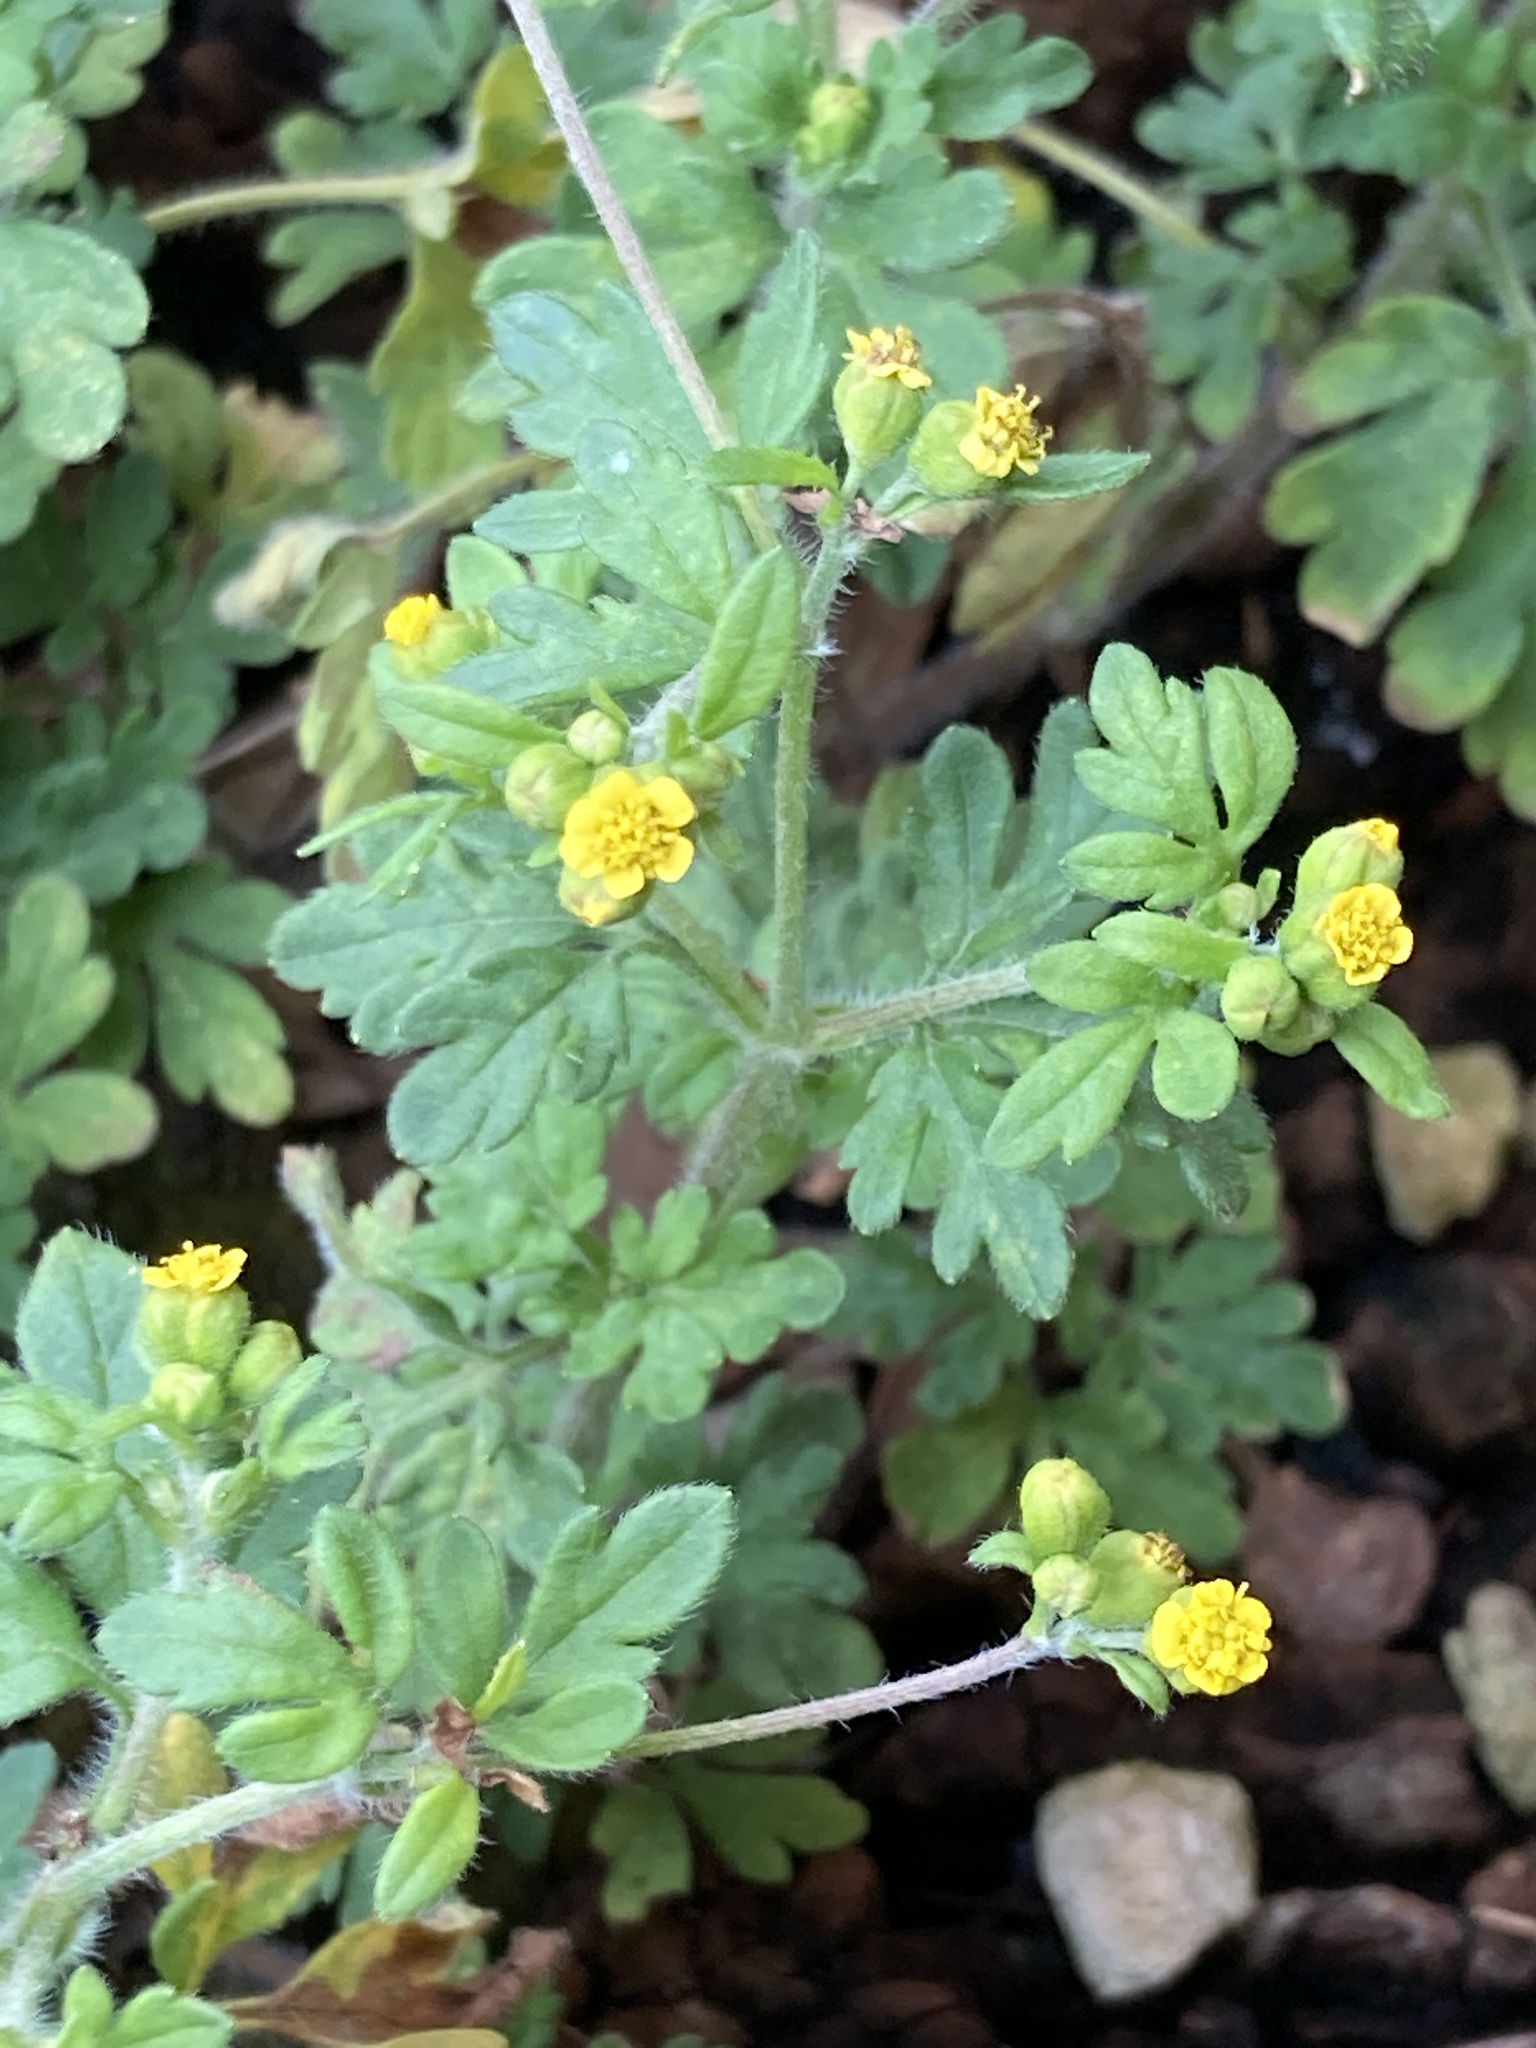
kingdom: Plantae
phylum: Tracheophyta
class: Magnoliopsida
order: Asterales
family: Asteraceae
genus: Villanova
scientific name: Villanova oppositifolia
